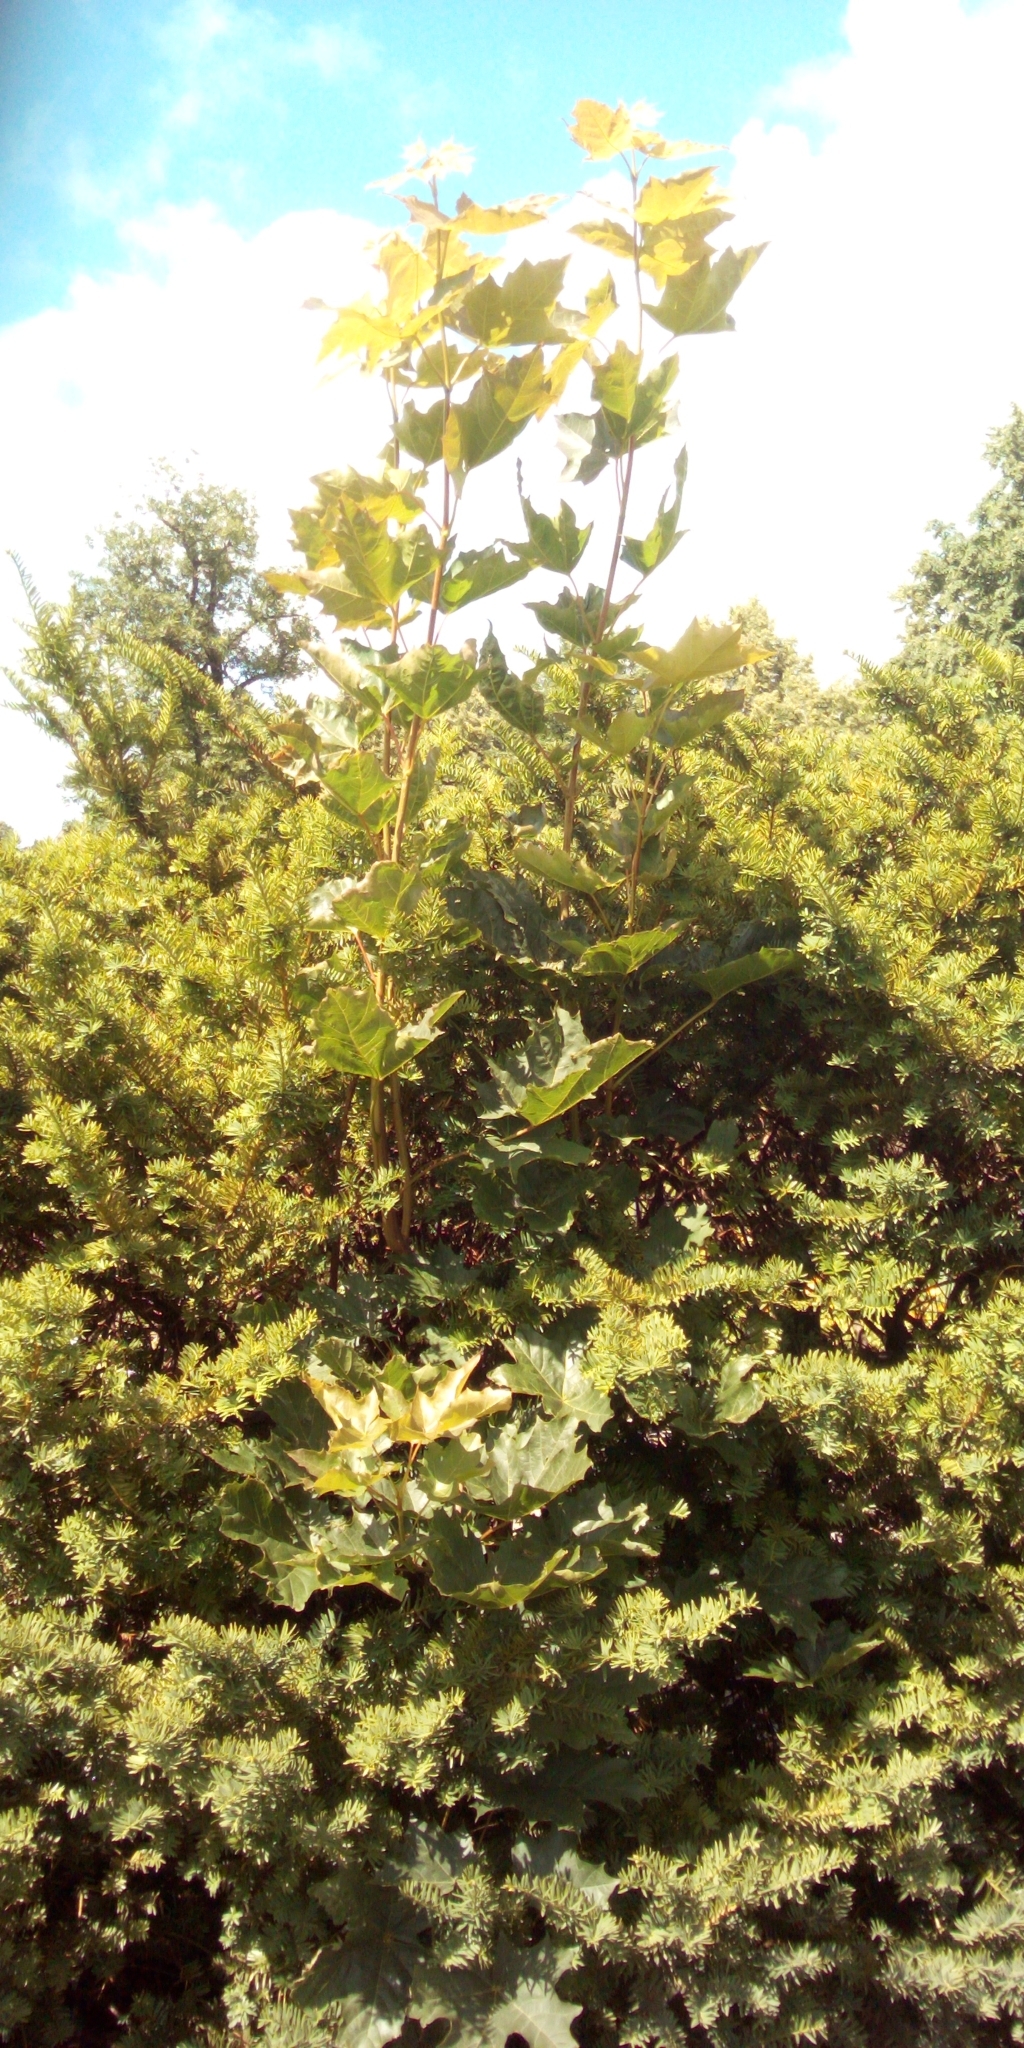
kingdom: Plantae
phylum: Tracheophyta
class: Magnoliopsida
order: Sapindales
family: Sapindaceae
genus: Acer
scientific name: Acer platanoides
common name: Norway maple
